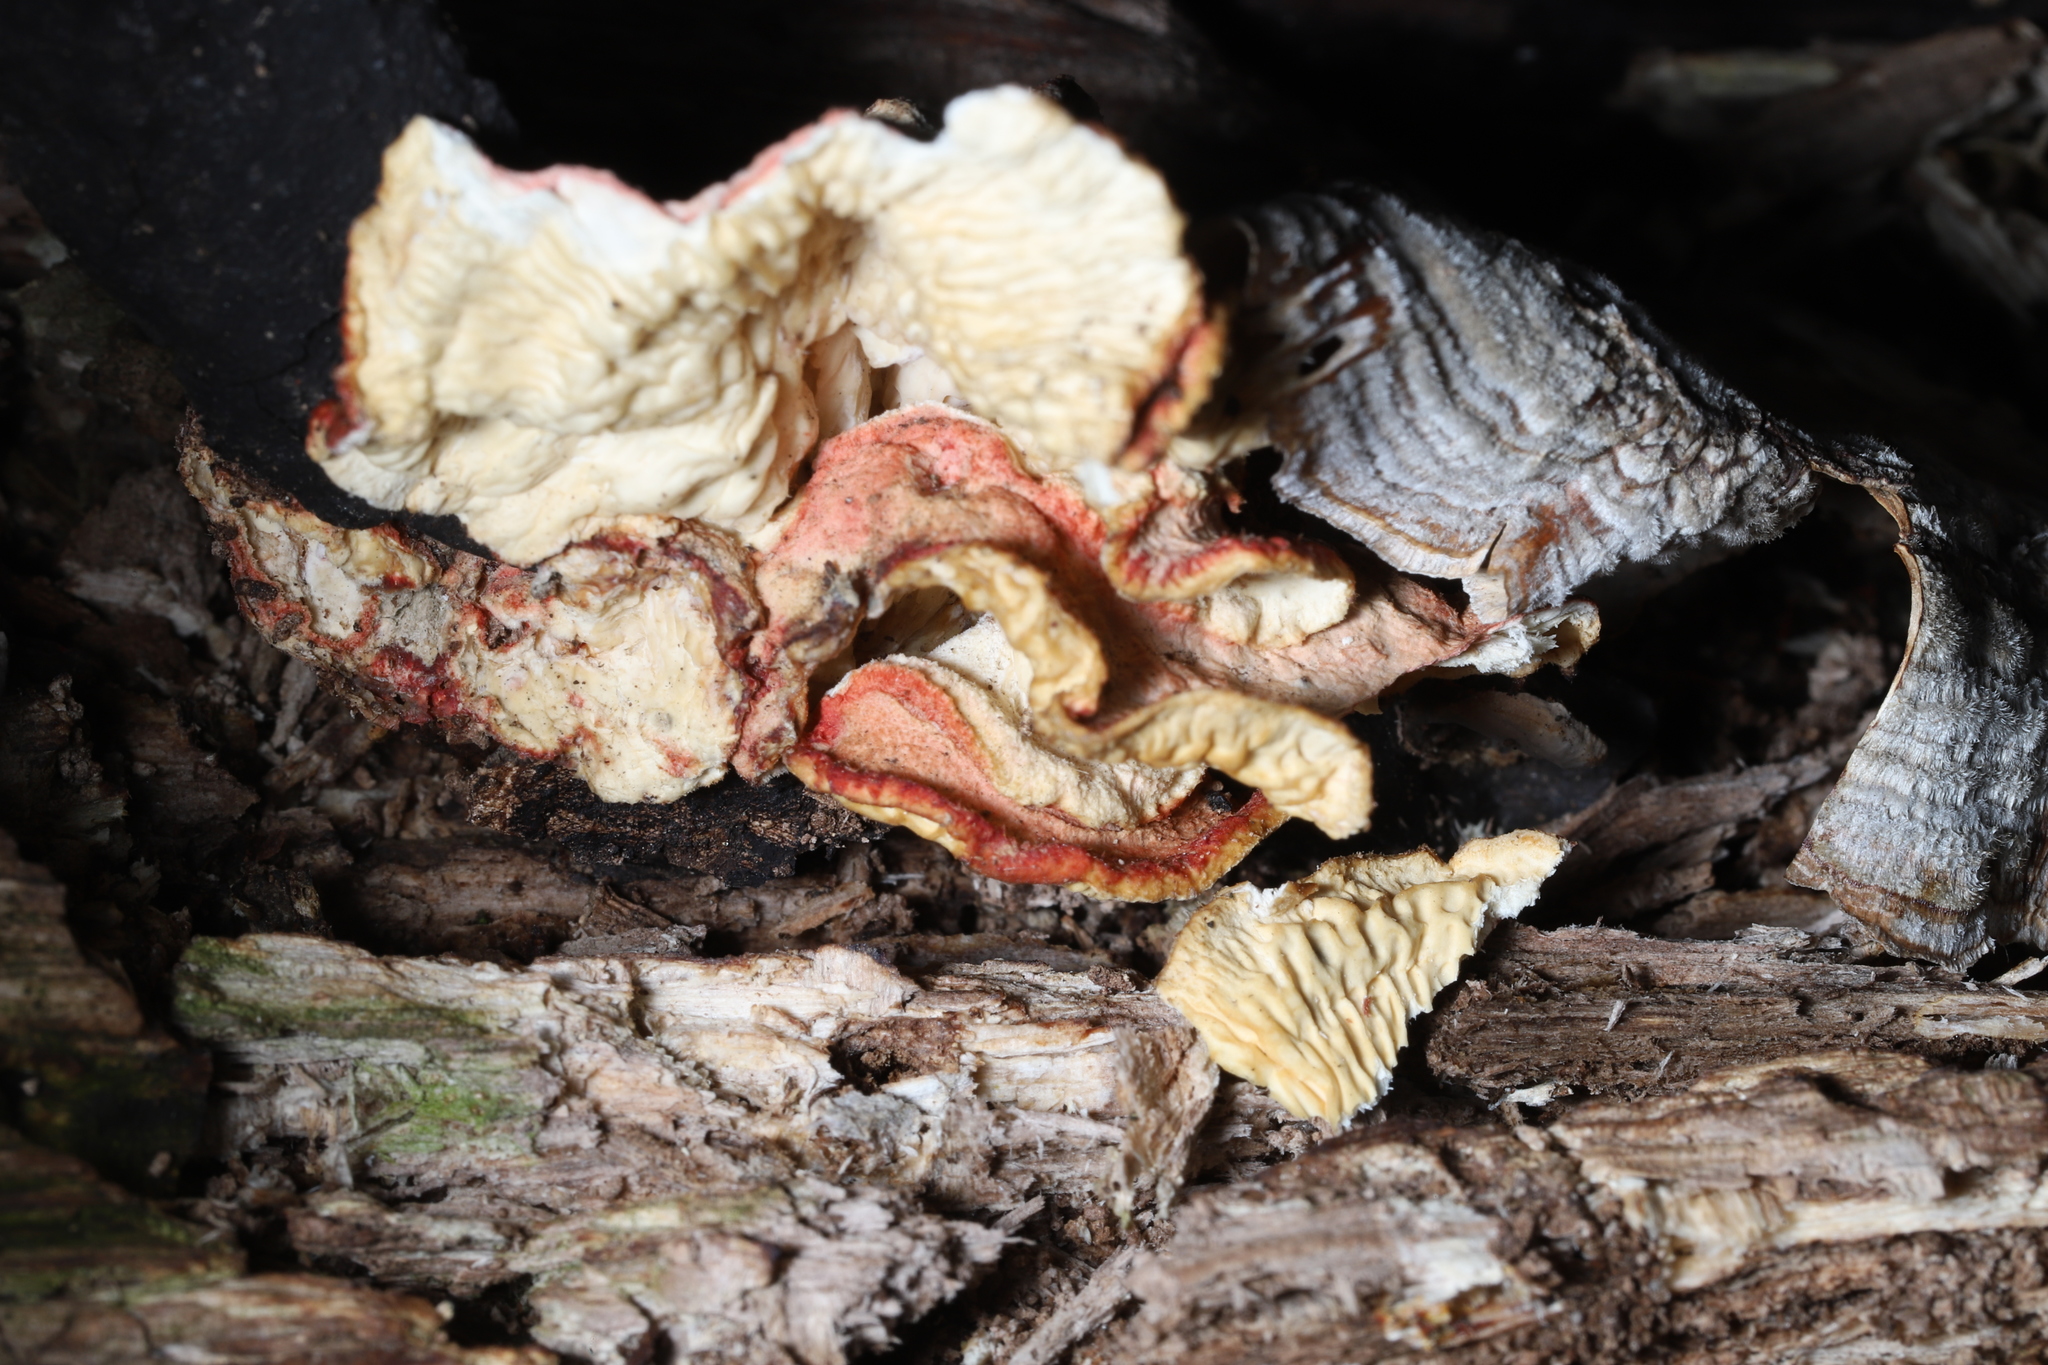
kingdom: Fungi
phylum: Basidiomycota
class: Agaricomycetes
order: Polyporales
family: Irpicaceae
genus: Byssomerulius
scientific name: Byssomerulius incarnatus
